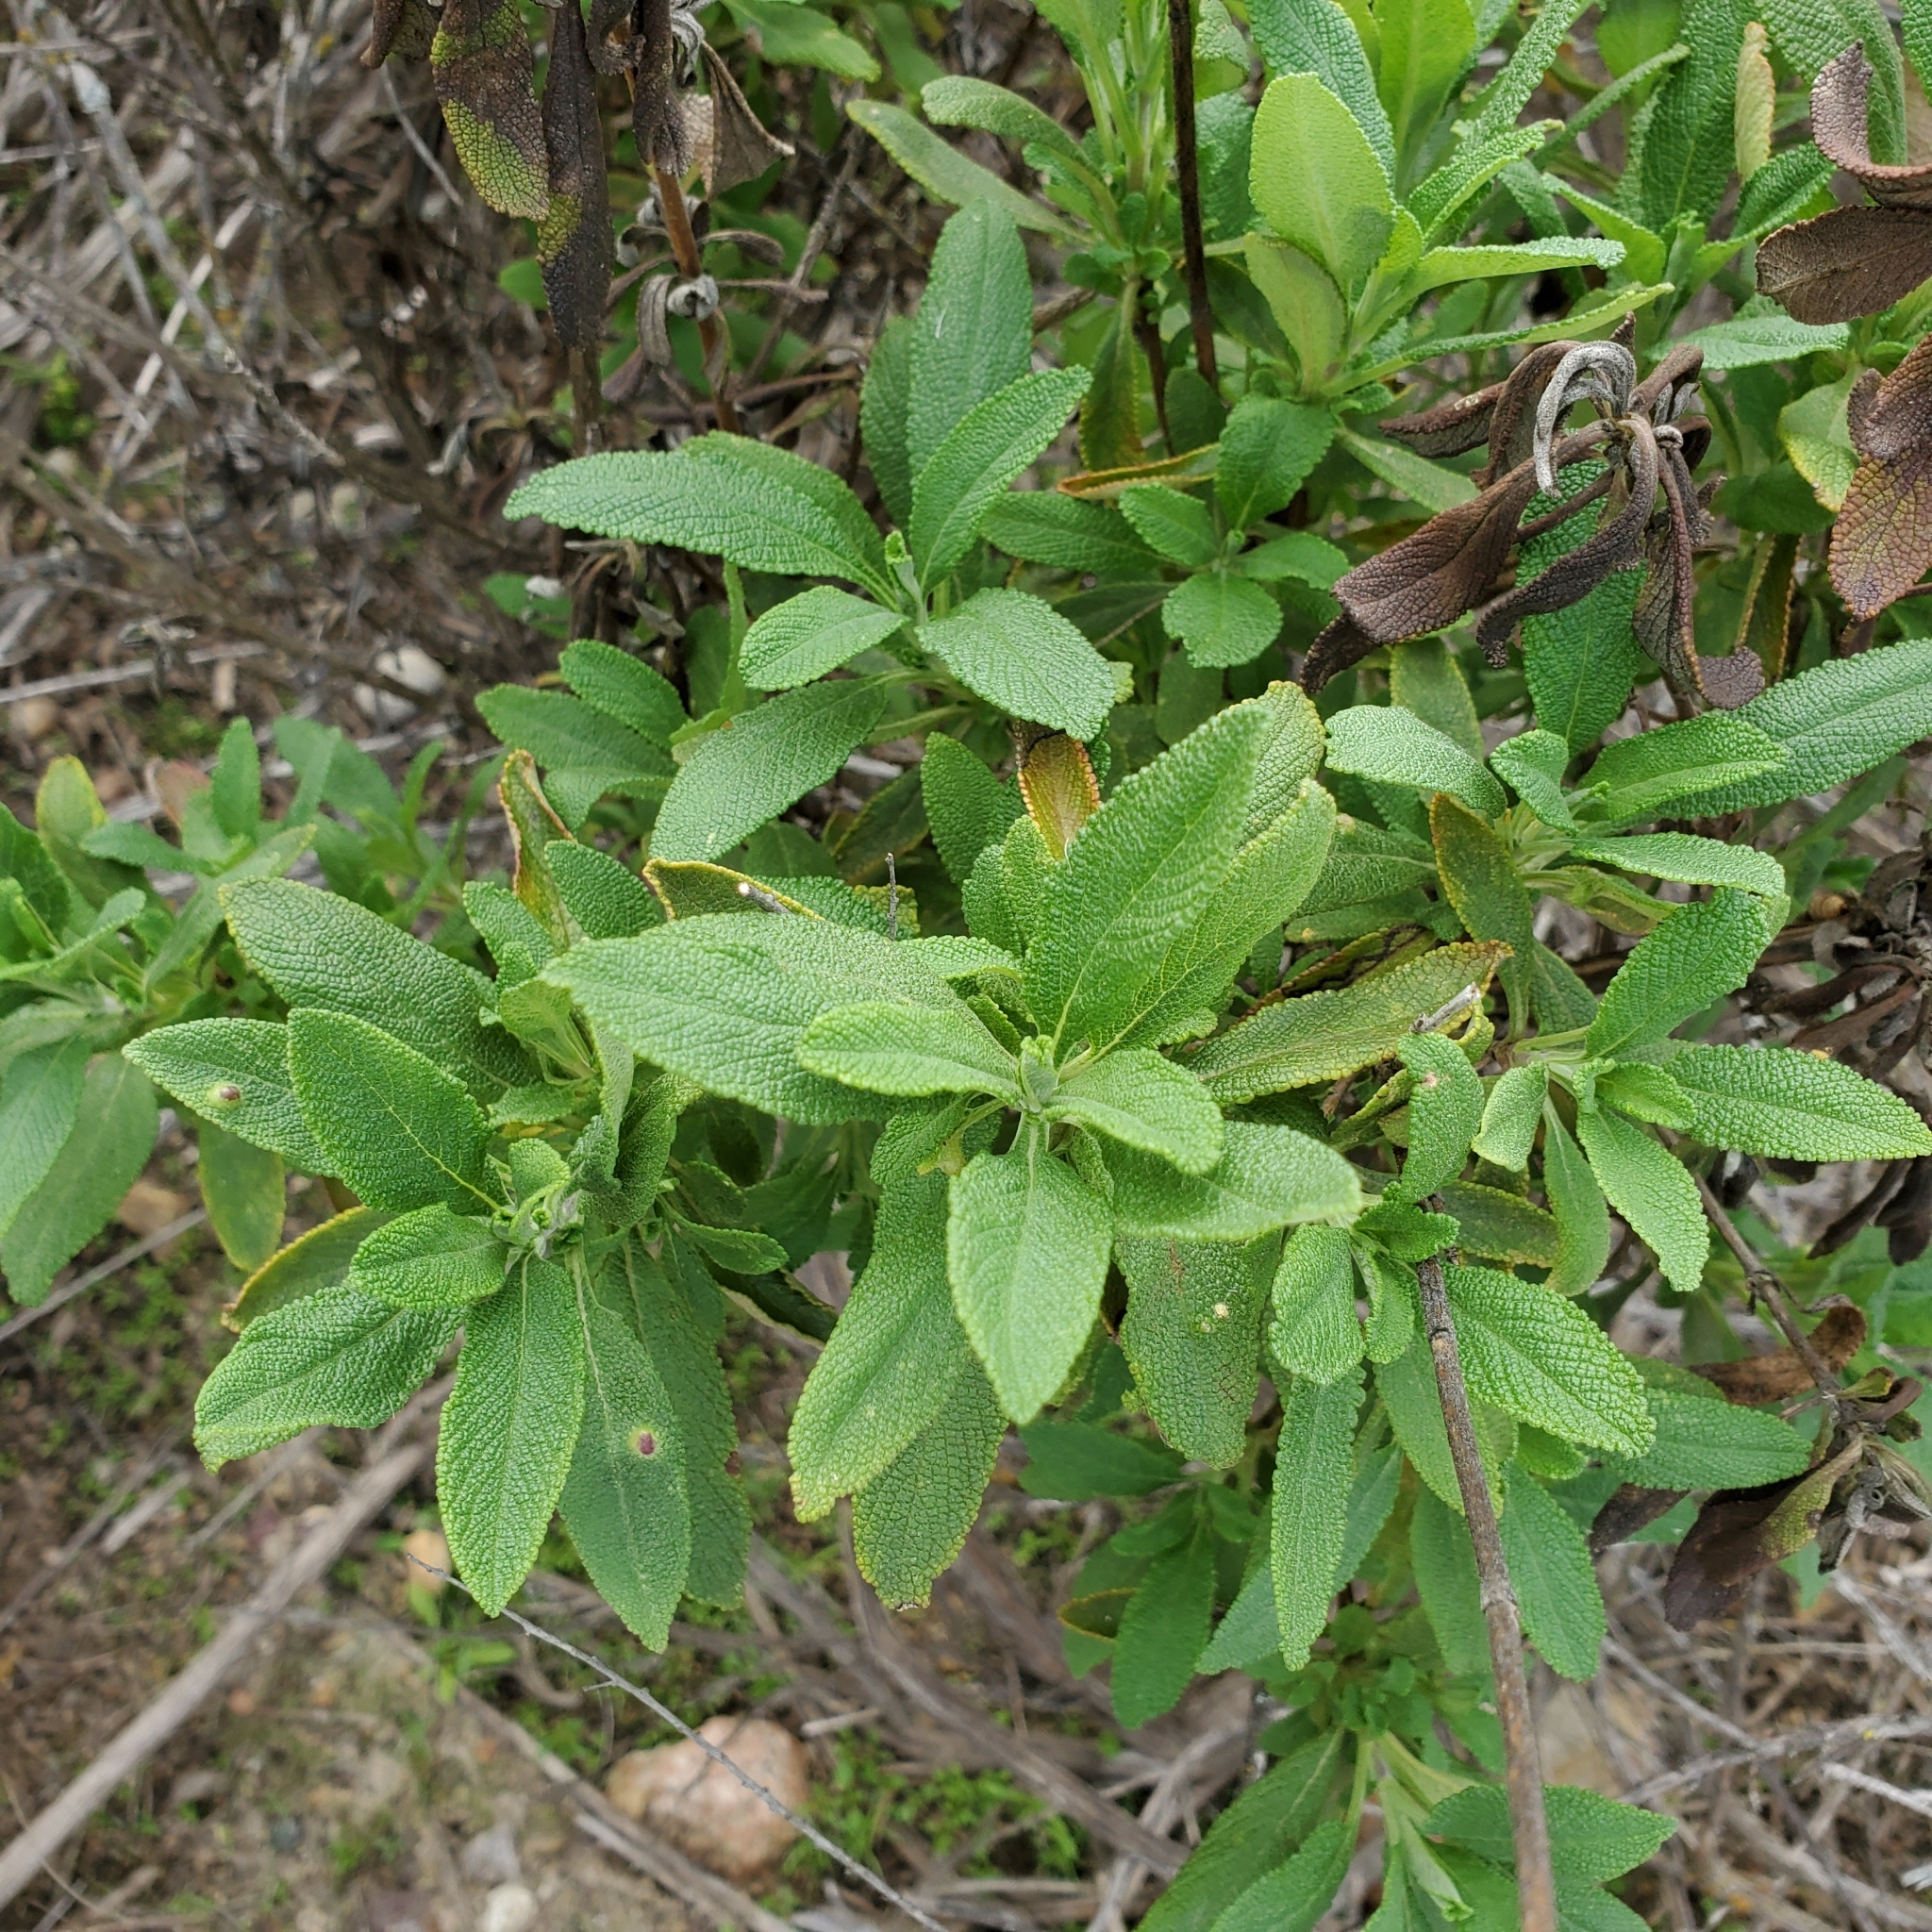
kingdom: Plantae
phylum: Tracheophyta
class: Magnoliopsida
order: Lamiales
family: Lamiaceae
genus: Salvia
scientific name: Salvia mellifera
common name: Black sage
